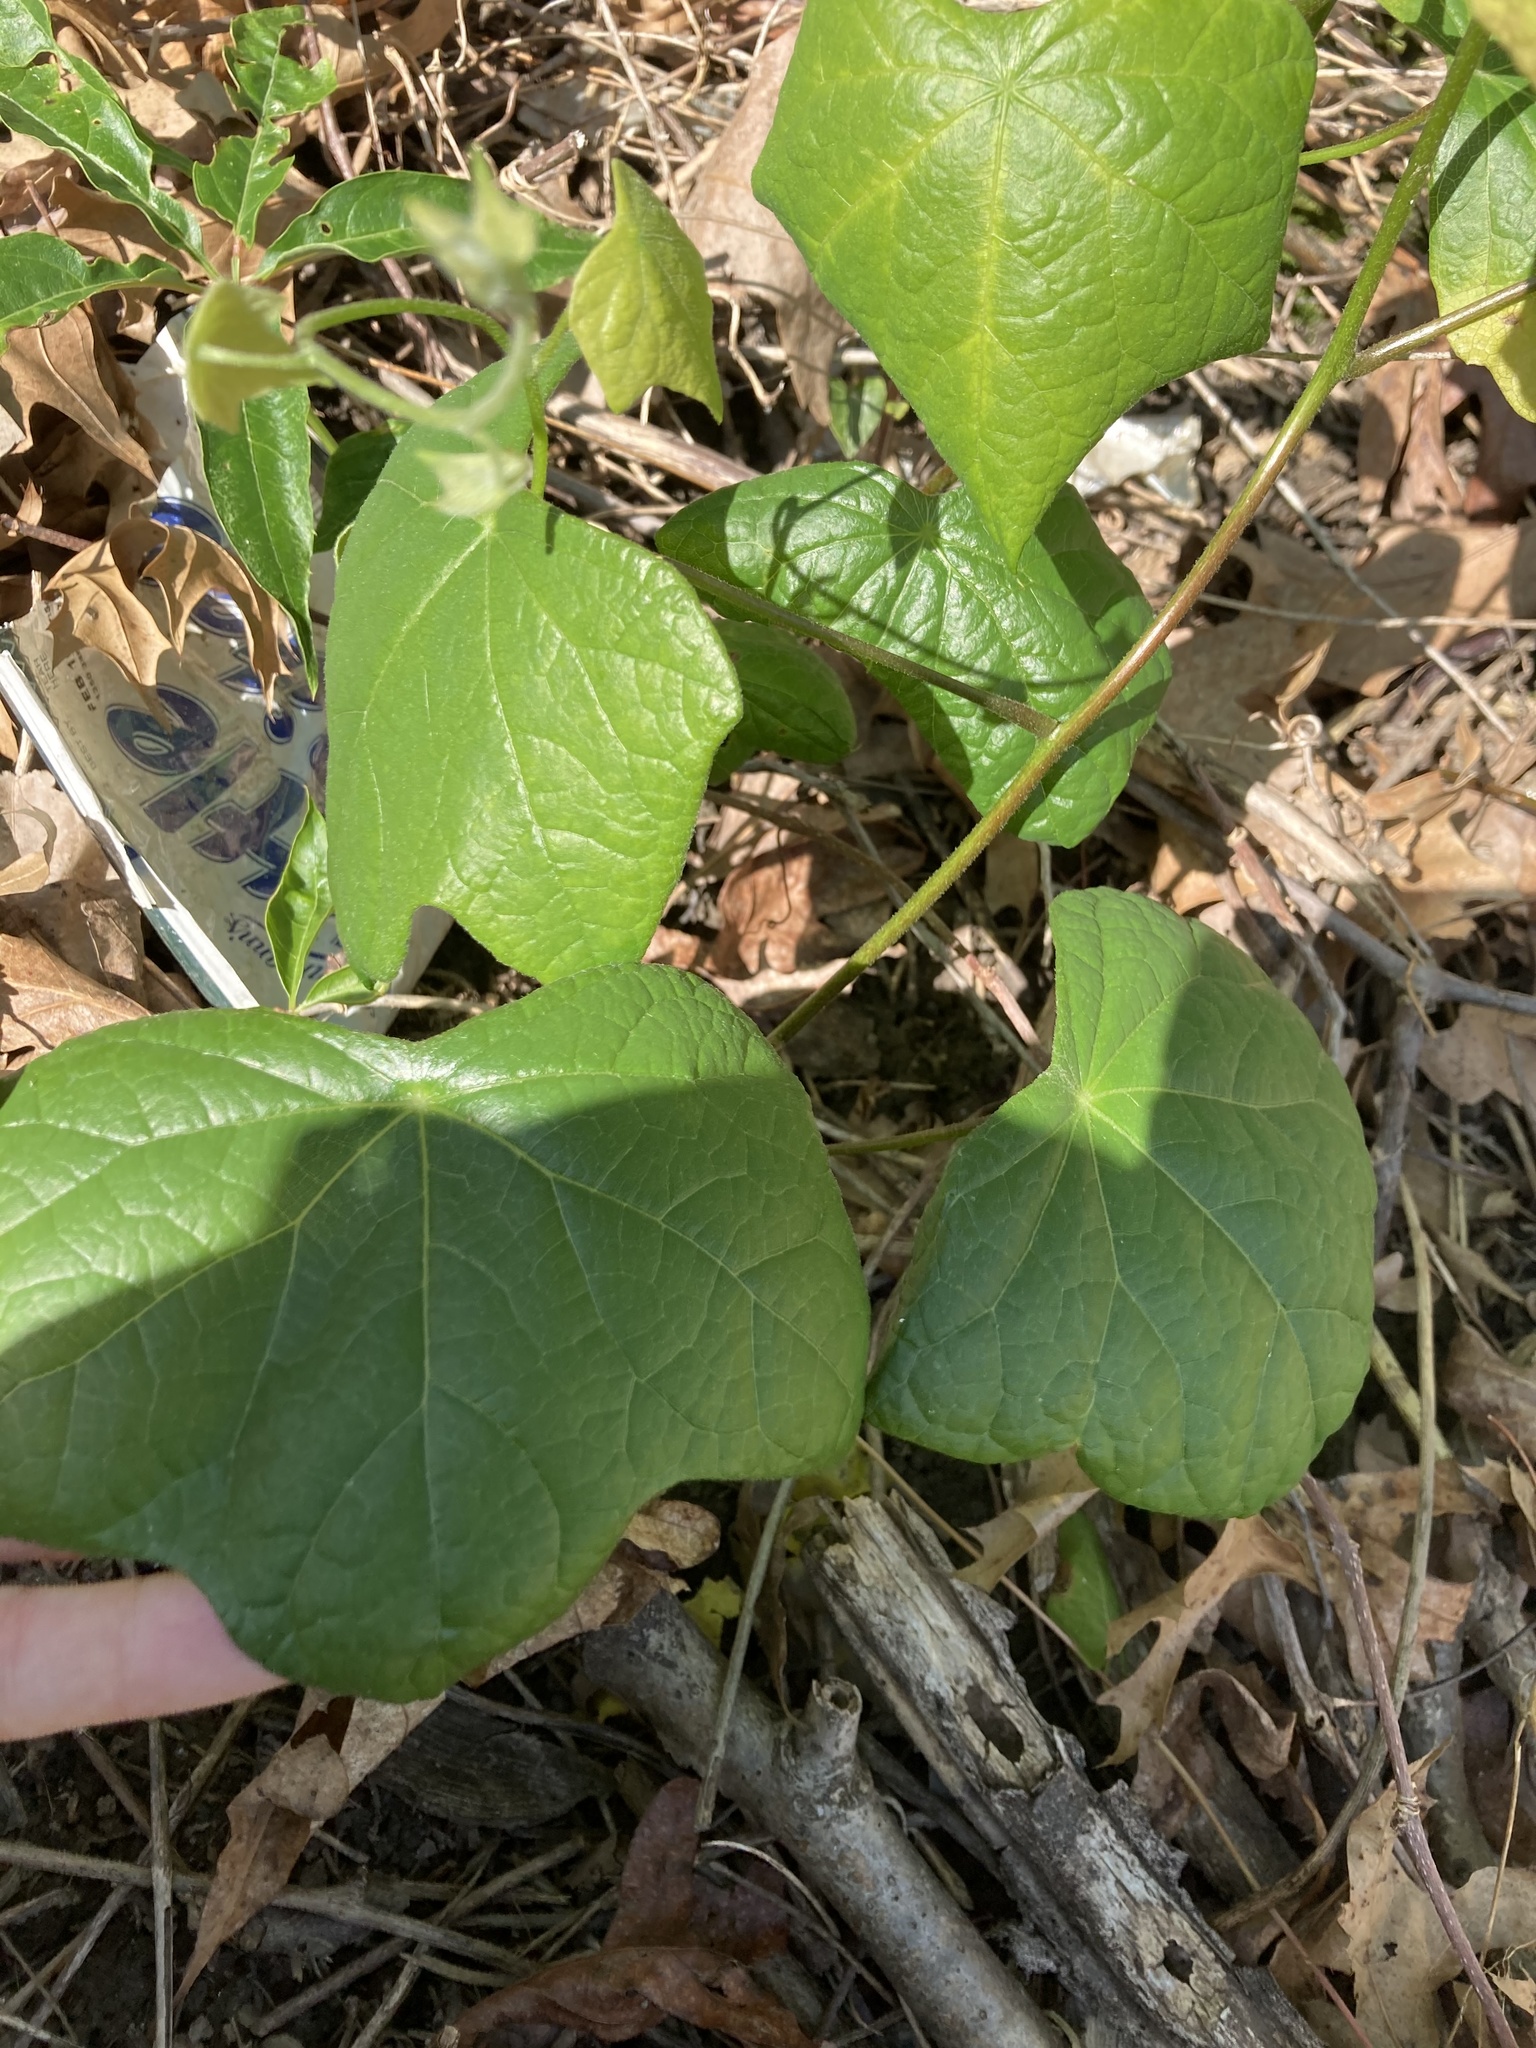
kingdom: Plantae
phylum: Tracheophyta
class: Magnoliopsida
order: Ranunculales
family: Menispermaceae
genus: Menispermum
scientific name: Menispermum canadense
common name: Moonseed
